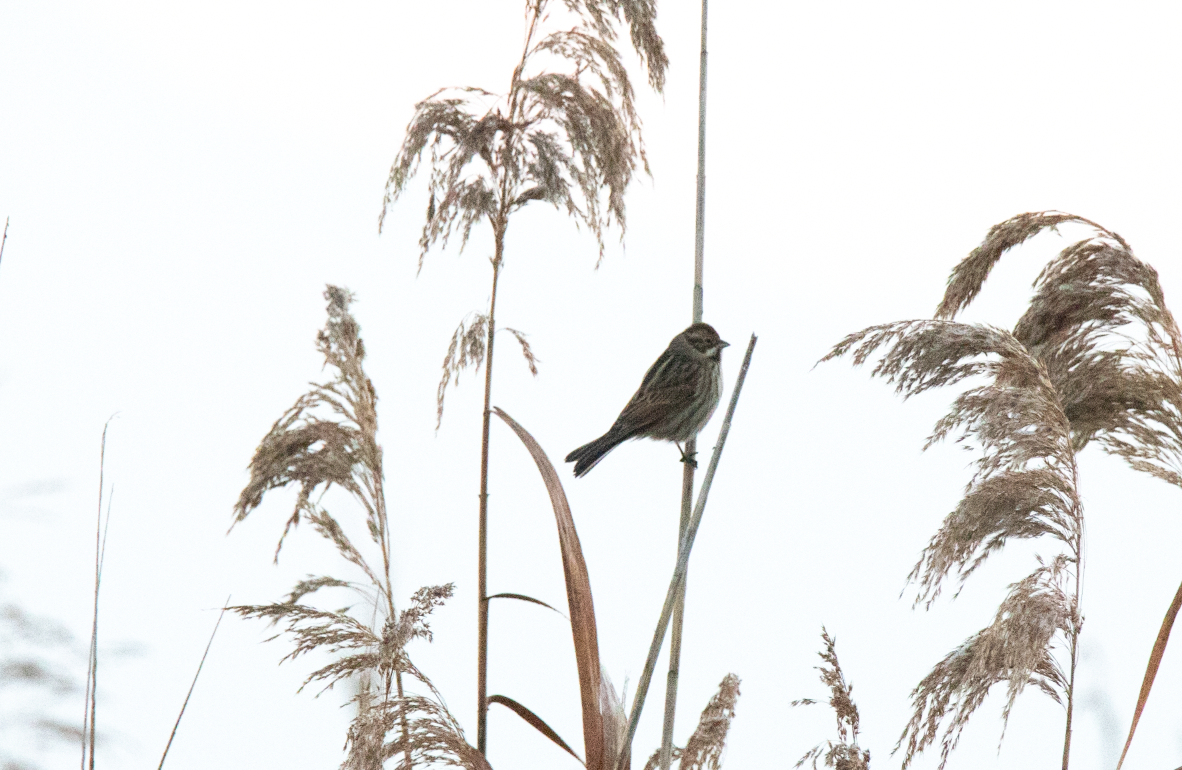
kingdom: Animalia
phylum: Chordata
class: Aves
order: Passeriformes
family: Emberizidae
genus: Emberiza
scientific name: Emberiza schoeniclus
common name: Reed bunting
